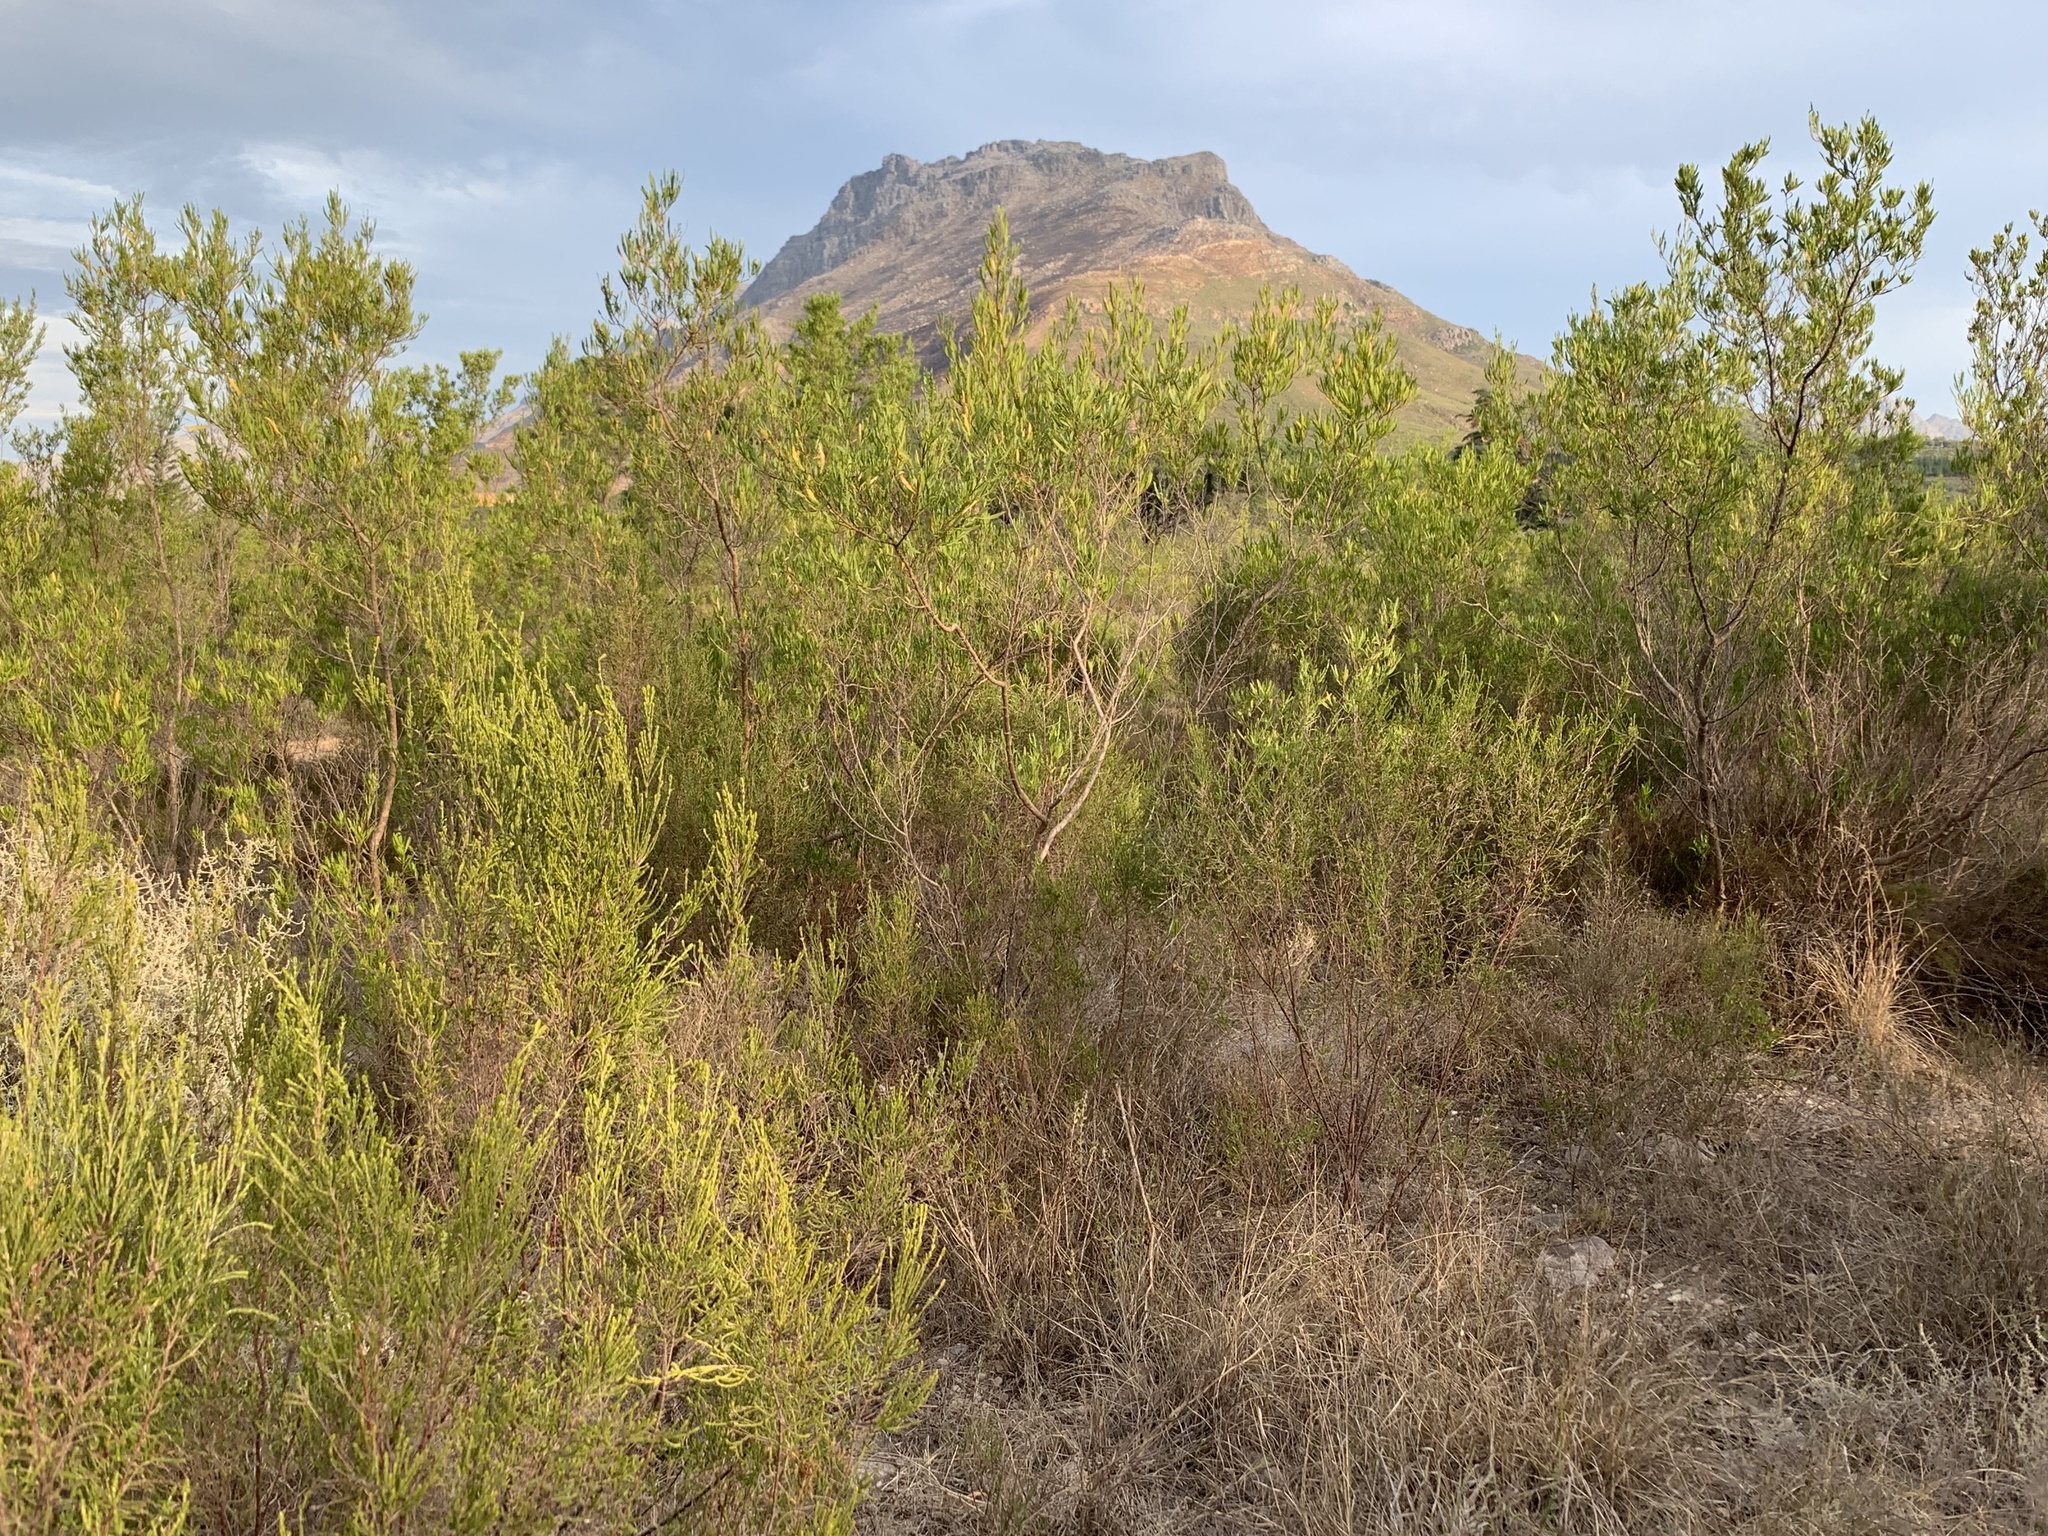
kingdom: Plantae
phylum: Tracheophyta
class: Magnoliopsida
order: Sapindales
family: Sapindaceae
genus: Dodonaea
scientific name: Dodonaea viscosa
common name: Hopbush
